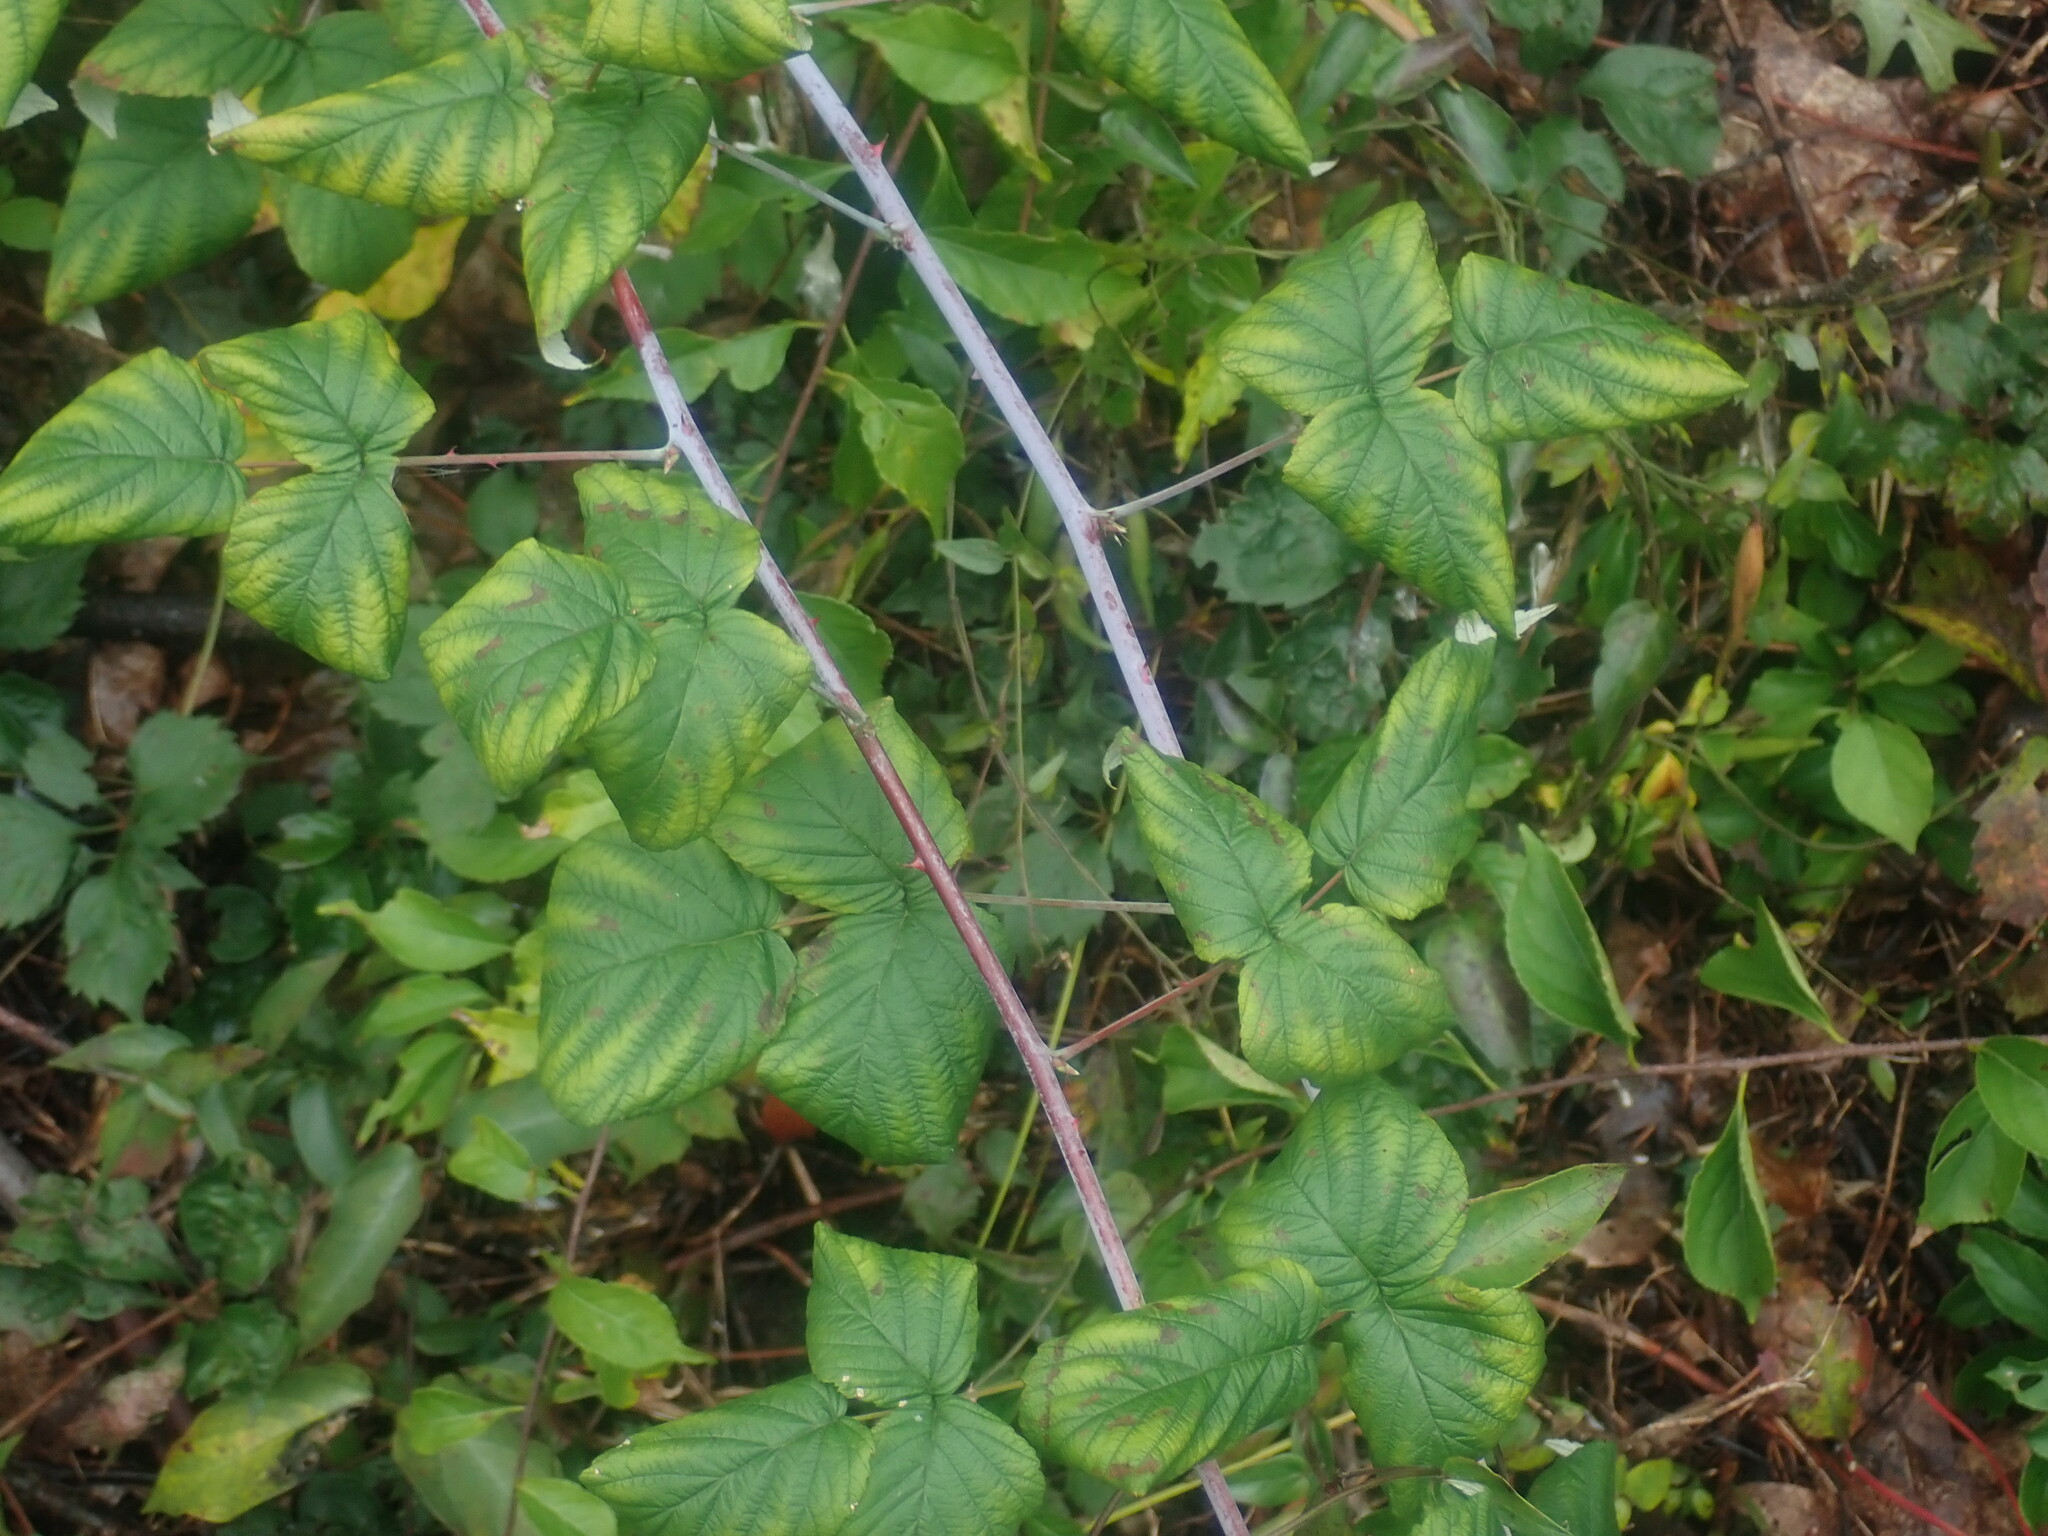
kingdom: Plantae
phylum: Tracheophyta
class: Magnoliopsida
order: Rosales
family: Rosaceae
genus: Rubus
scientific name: Rubus occidentalis
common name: Black raspberry
